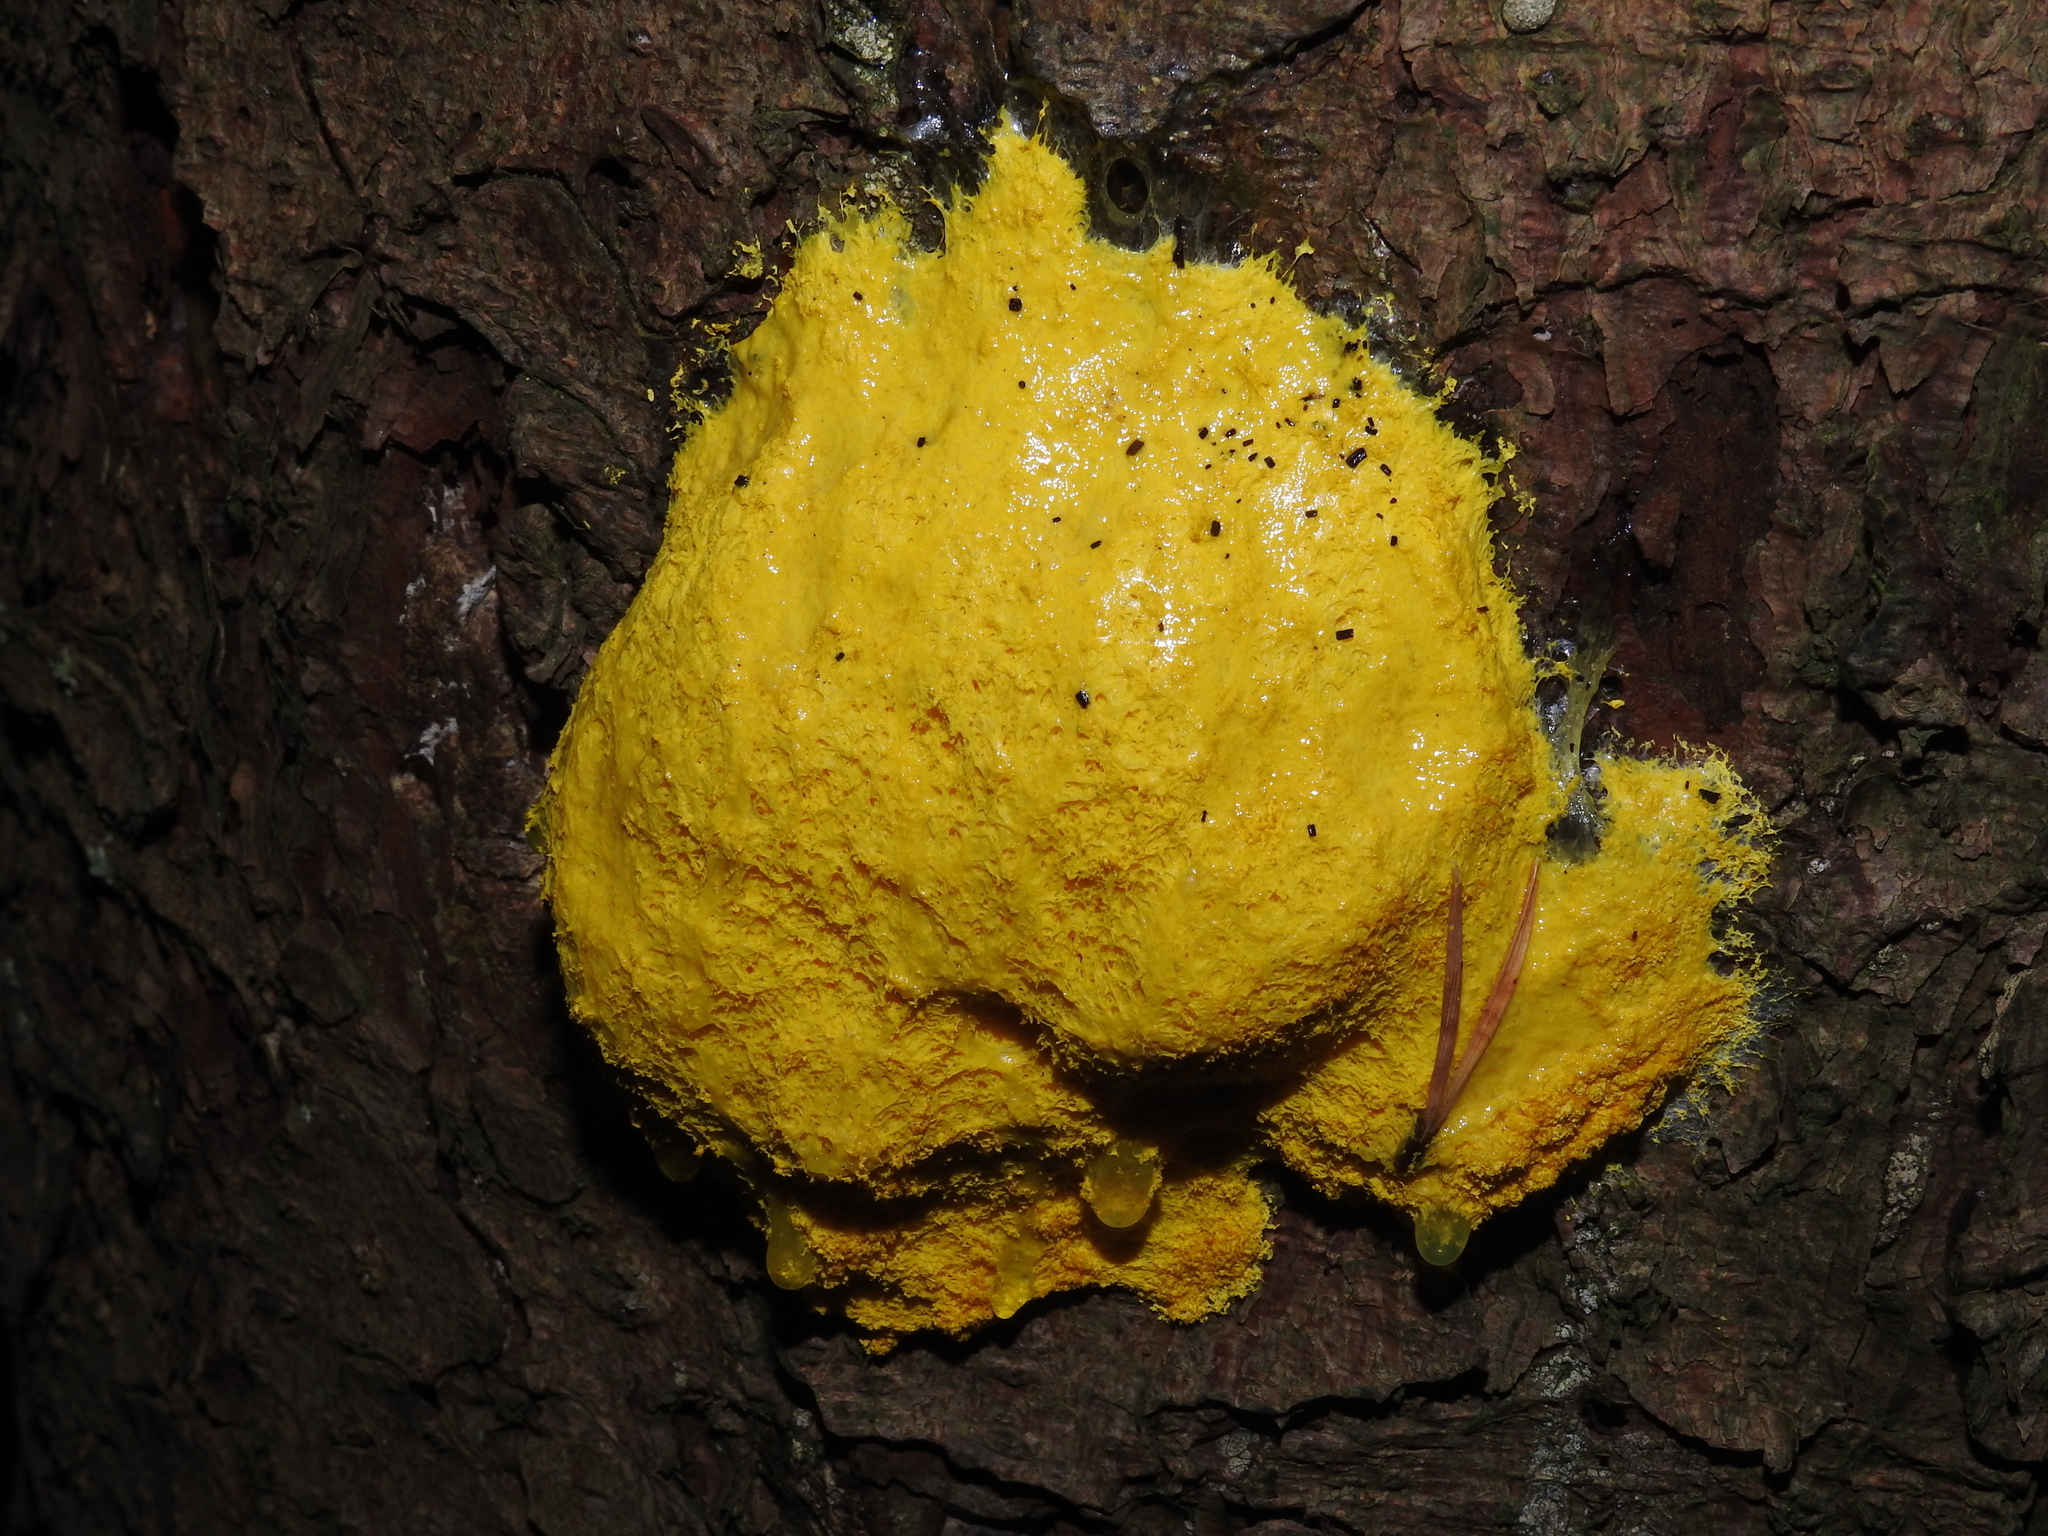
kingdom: Protozoa
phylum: Mycetozoa
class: Myxomycetes
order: Physarales
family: Physaraceae
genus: Fuligo
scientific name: Fuligo septica
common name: Dog vomit slime mold
